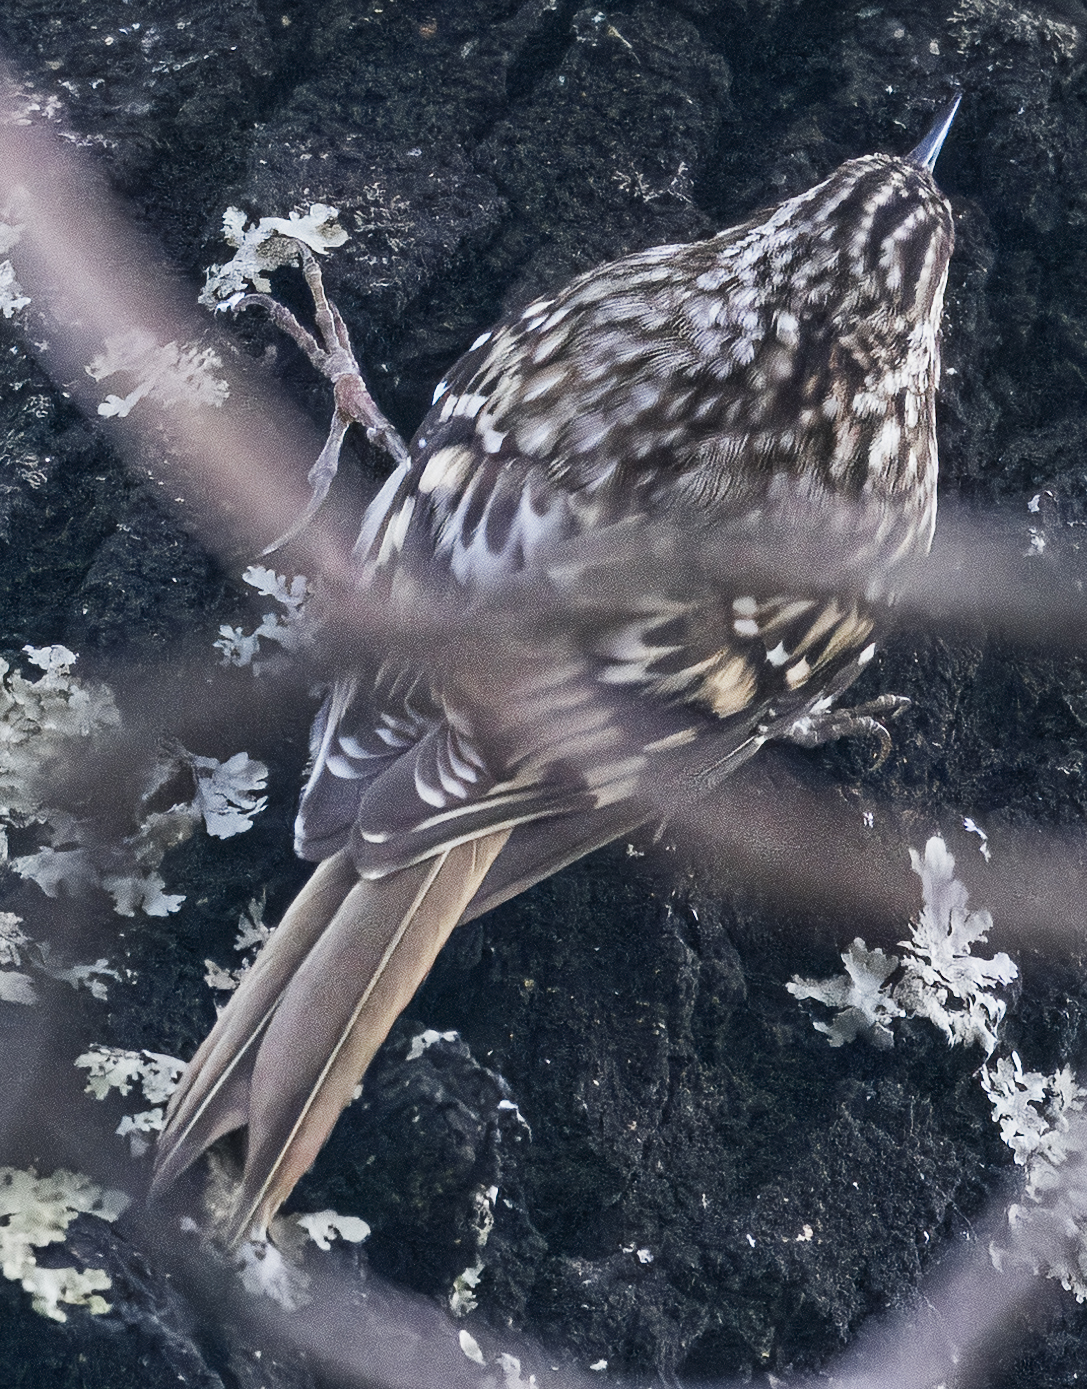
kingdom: Animalia
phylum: Chordata
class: Aves
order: Passeriformes
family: Certhiidae
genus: Certhia
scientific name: Certhia americana
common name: Brown creeper
